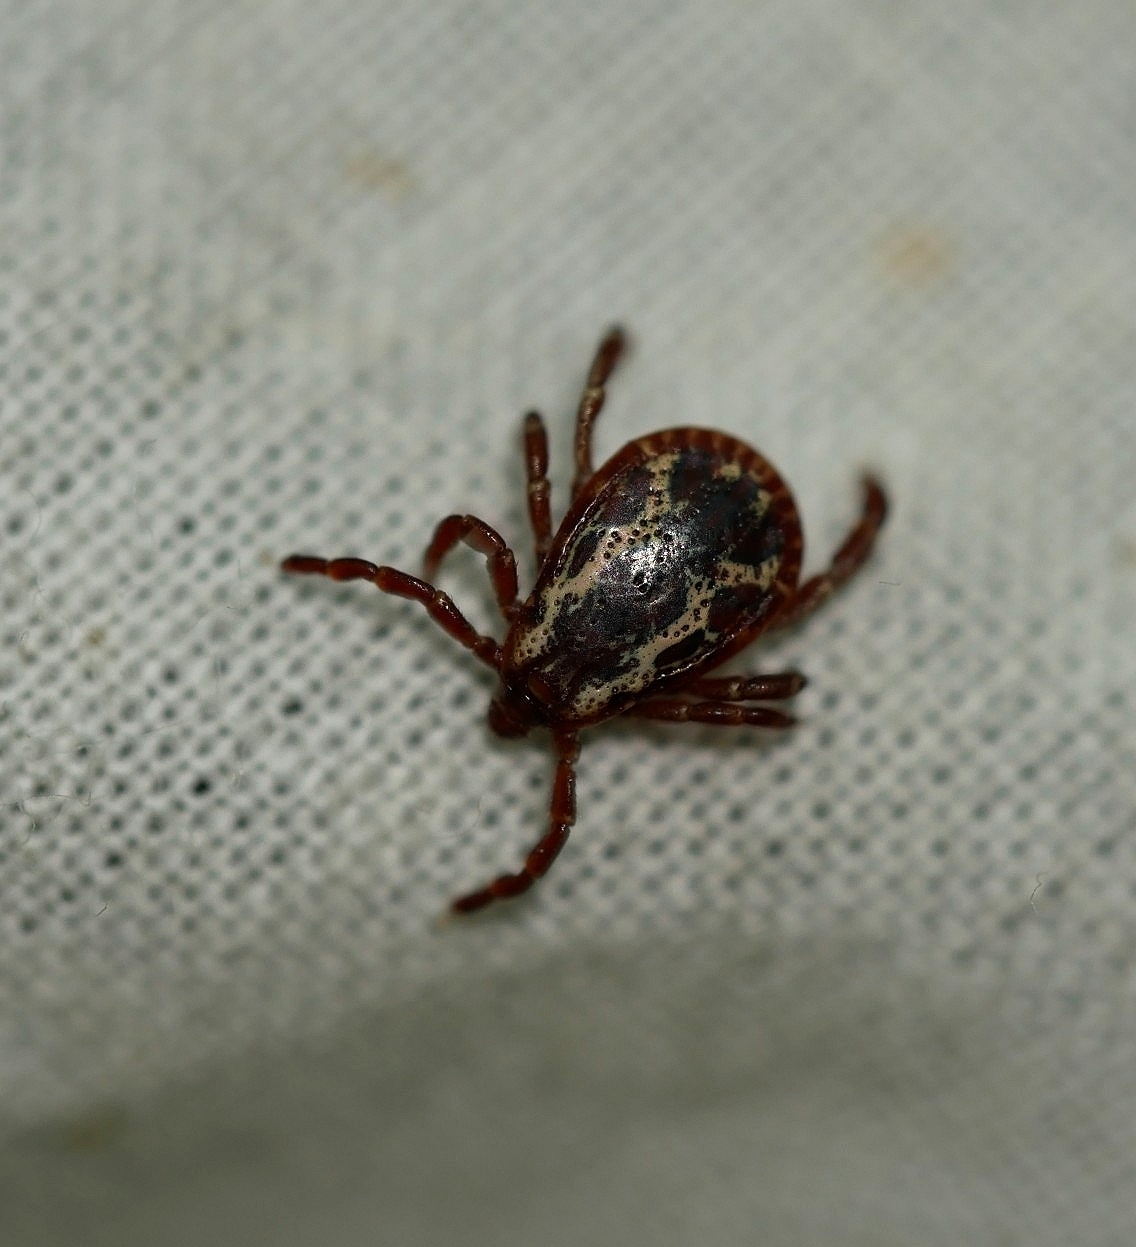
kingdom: Animalia
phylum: Arthropoda
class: Arachnida
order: Ixodida
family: Ixodidae
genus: Dermacentor
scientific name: Dermacentor variabilis
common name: American dog tick
